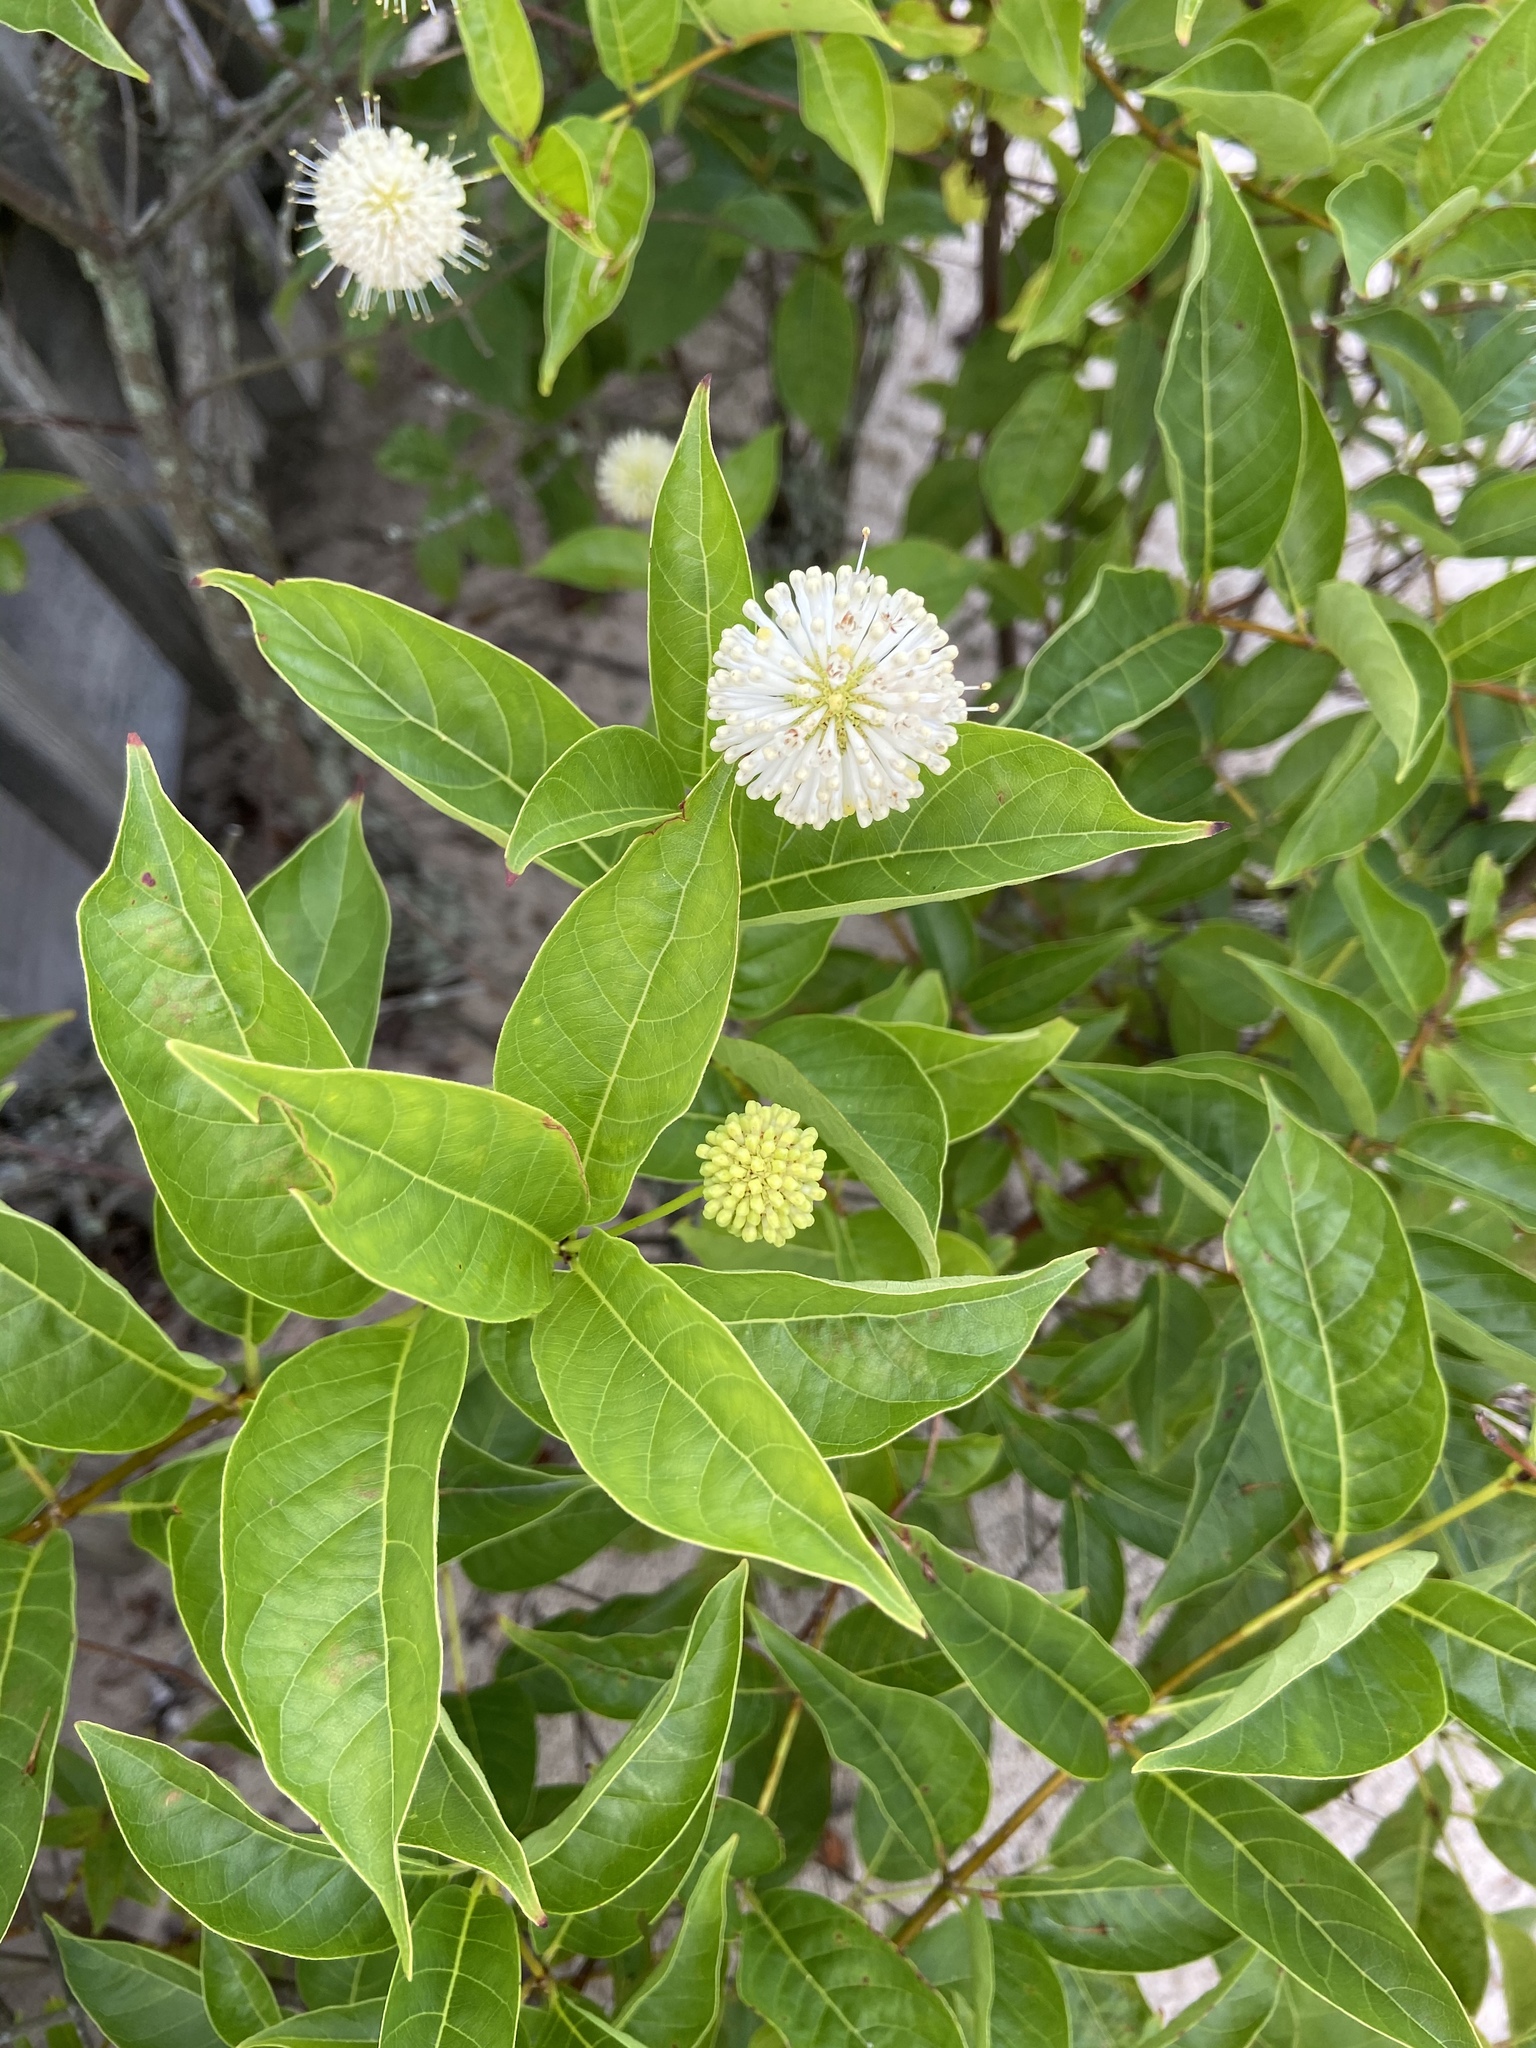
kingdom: Plantae
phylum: Tracheophyta
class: Magnoliopsida
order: Gentianales
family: Rubiaceae
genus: Cephalanthus
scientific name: Cephalanthus occidentalis
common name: Button-willow
